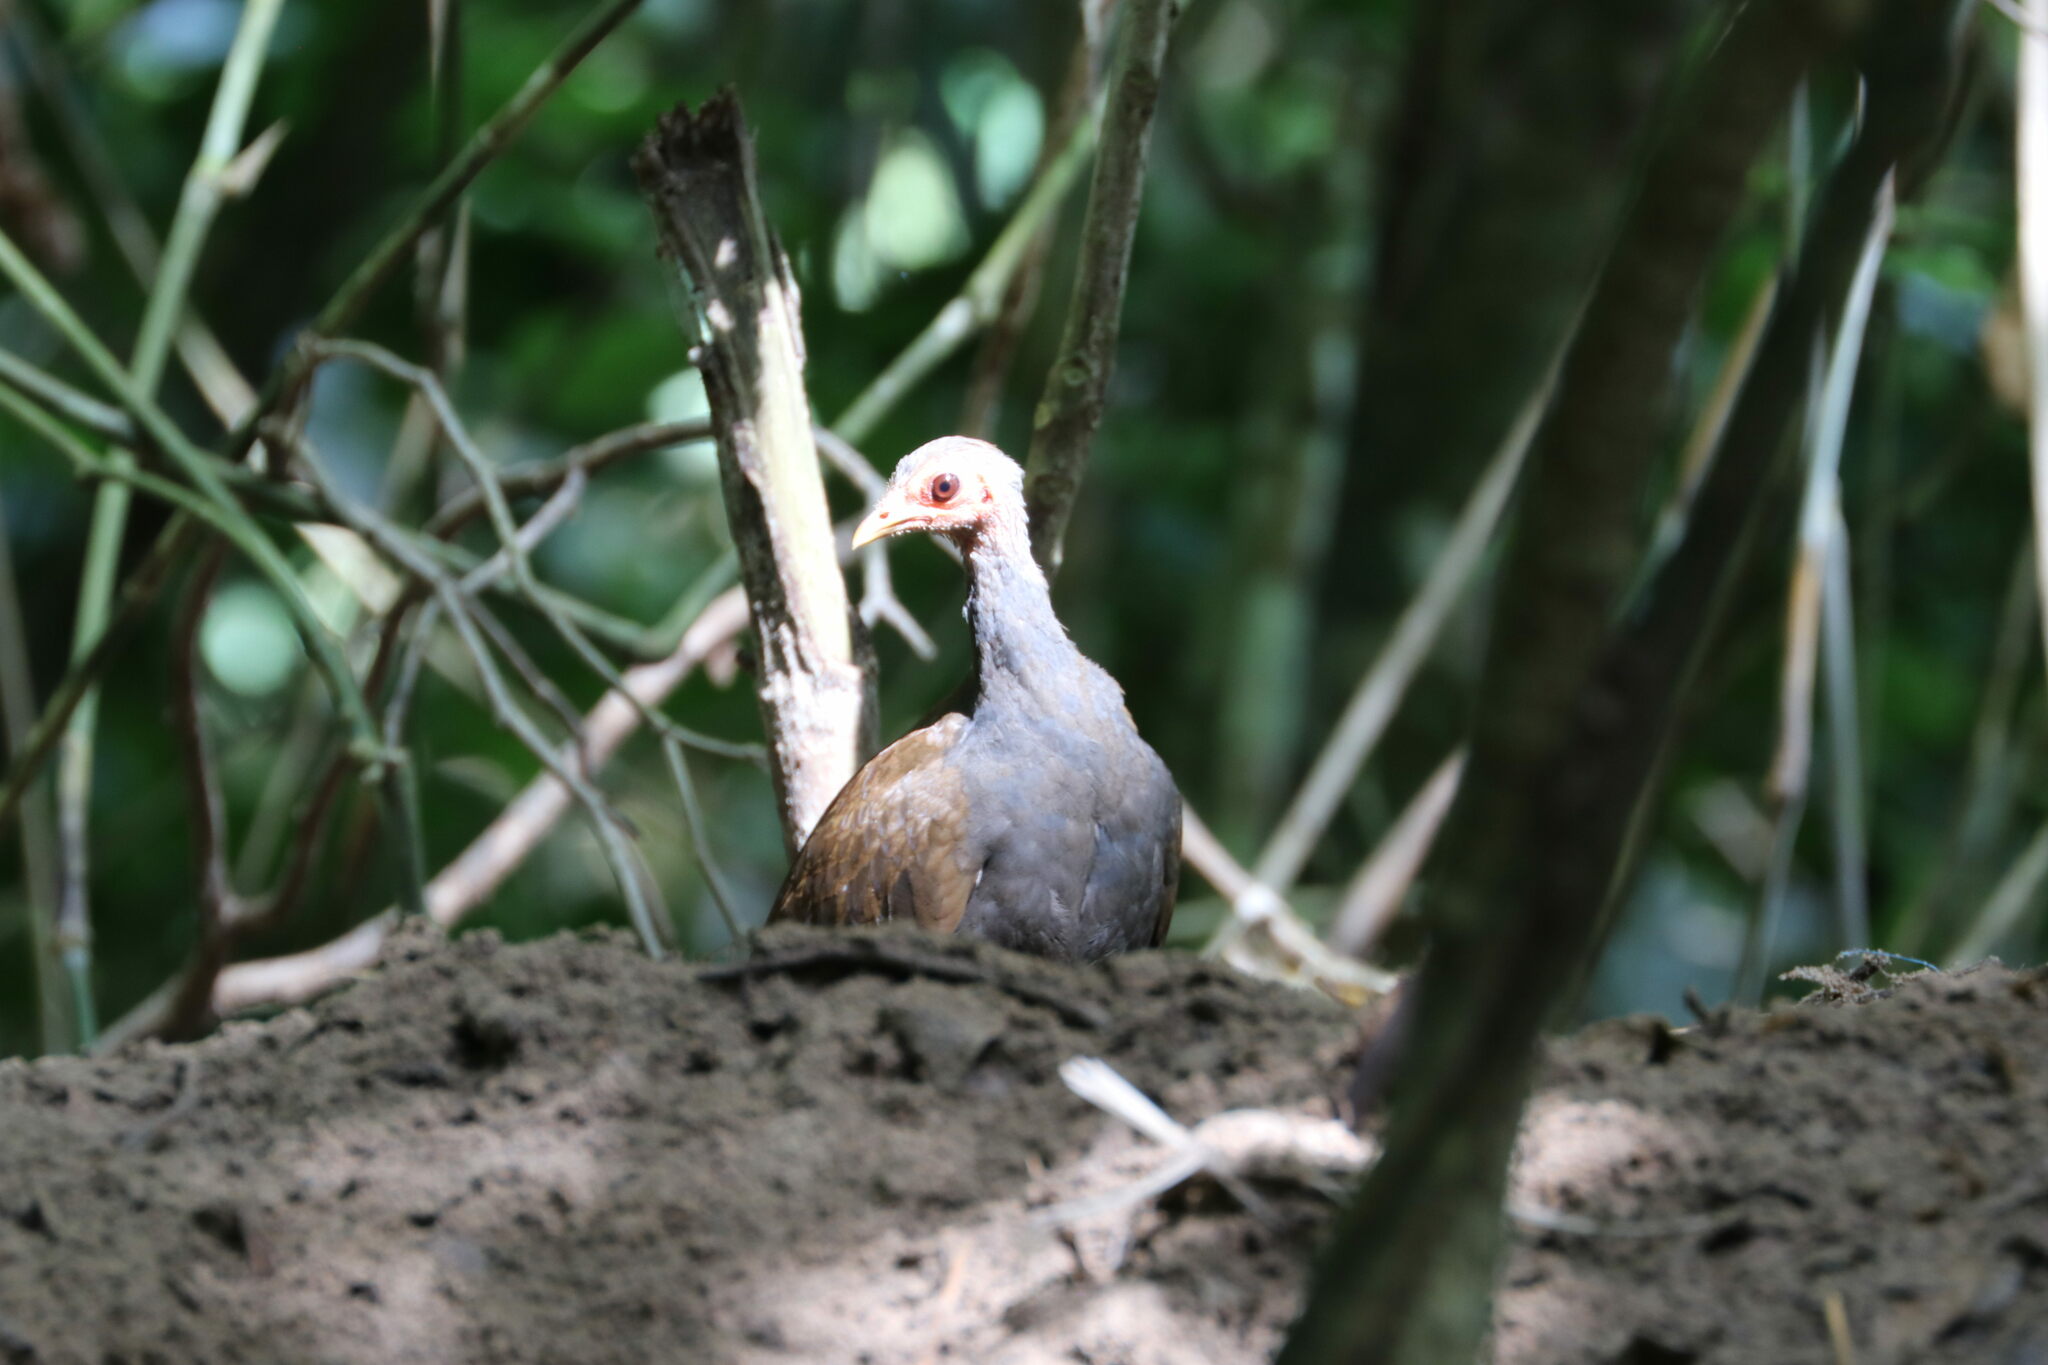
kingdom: Animalia
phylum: Chordata
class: Aves
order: Galliformes
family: Megapodiidae
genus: Megapodius
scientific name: Megapodius cumingii
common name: Philippine megapode
